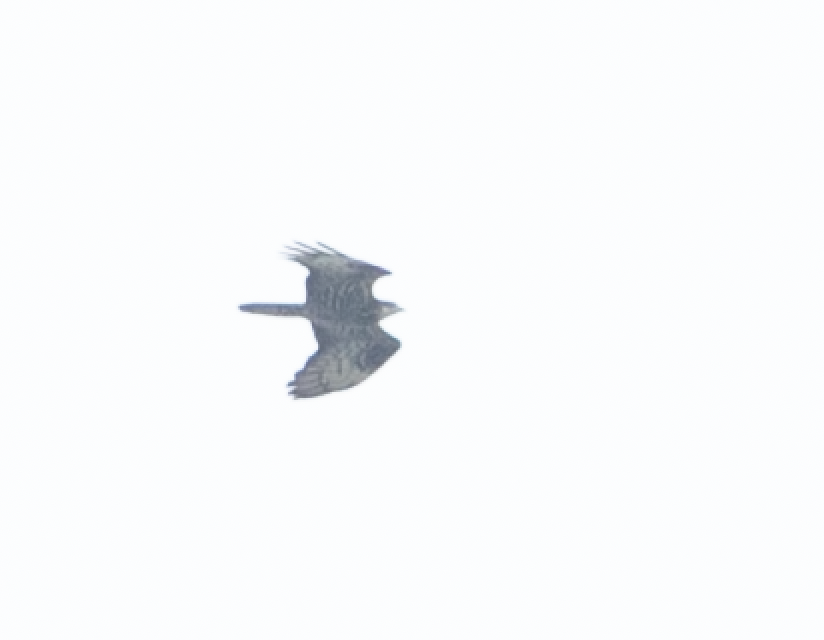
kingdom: Animalia
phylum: Chordata
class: Aves
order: Accipitriformes
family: Accipitridae
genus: Pernis
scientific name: Pernis apivorus
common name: European honey buzzard
